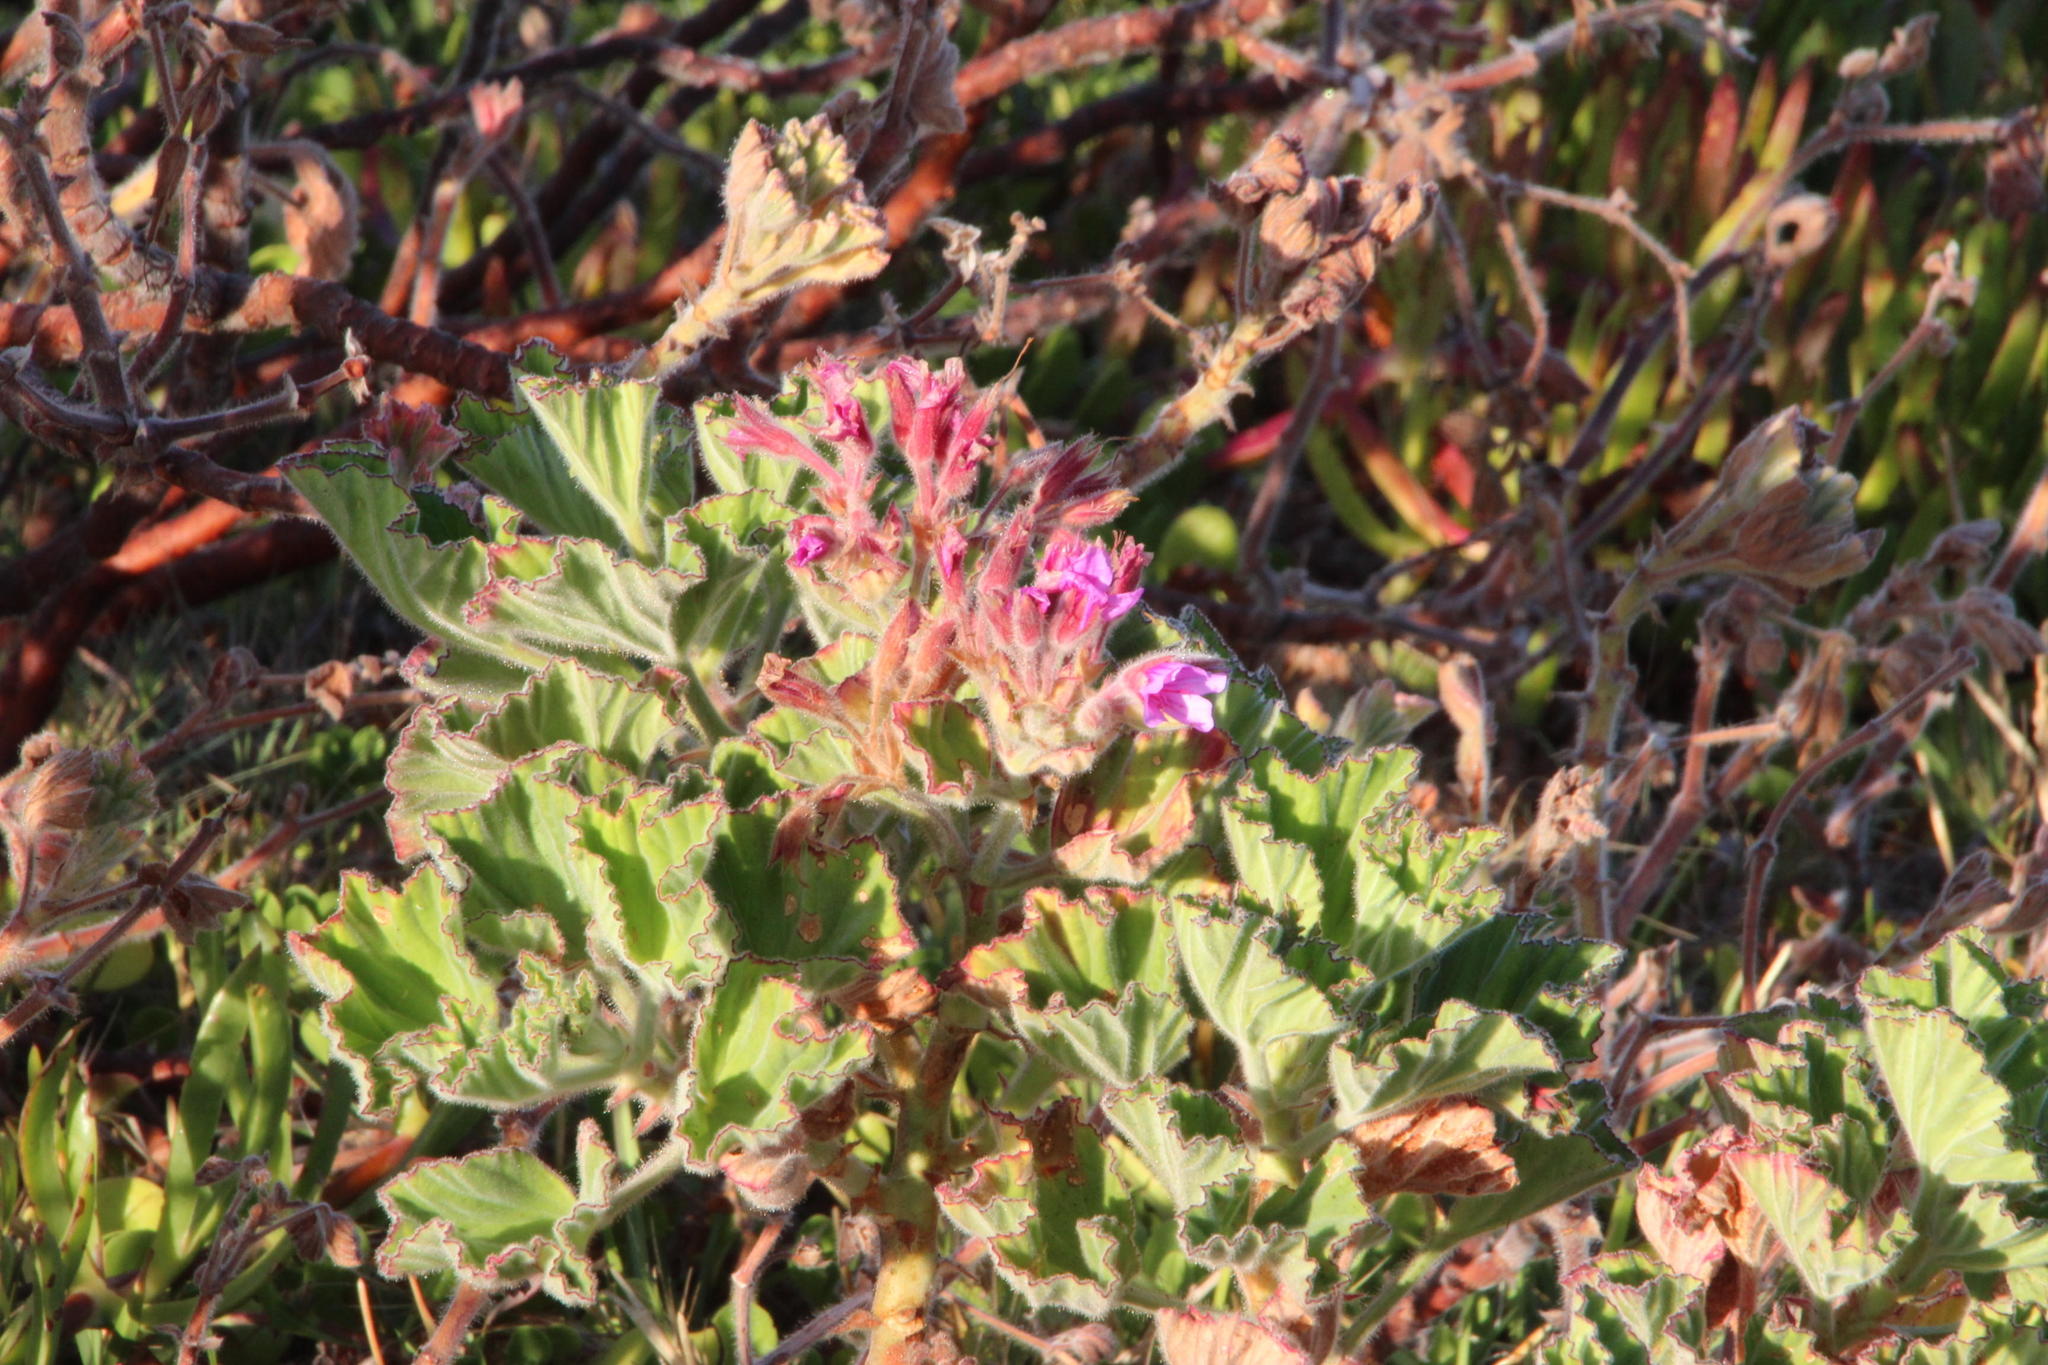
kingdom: Plantae
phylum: Tracheophyta
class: Magnoliopsida
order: Geraniales
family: Geraniaceae
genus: Pelargonium
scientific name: Pelargonium cucullatum
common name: Tree pelargonium
